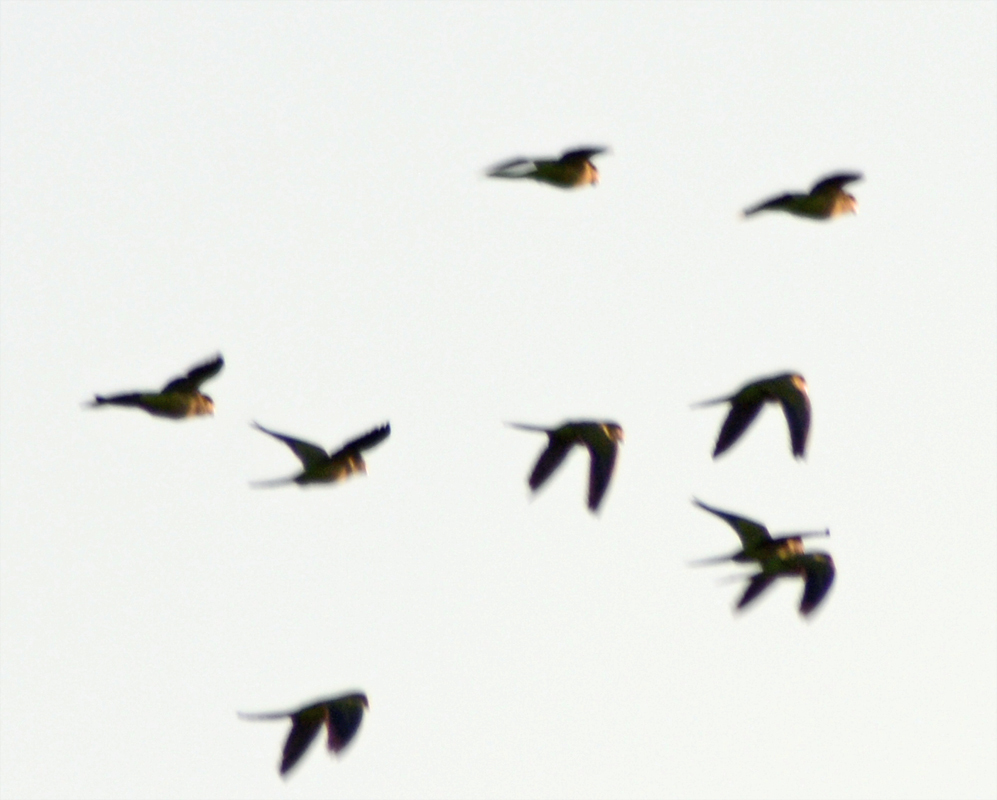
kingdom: Animalia
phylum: Chordata
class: Aves
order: Psittaciformes
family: Psittacidae
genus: Myiopsitta
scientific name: Myiopsitta monachus
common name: Monk parakeet
